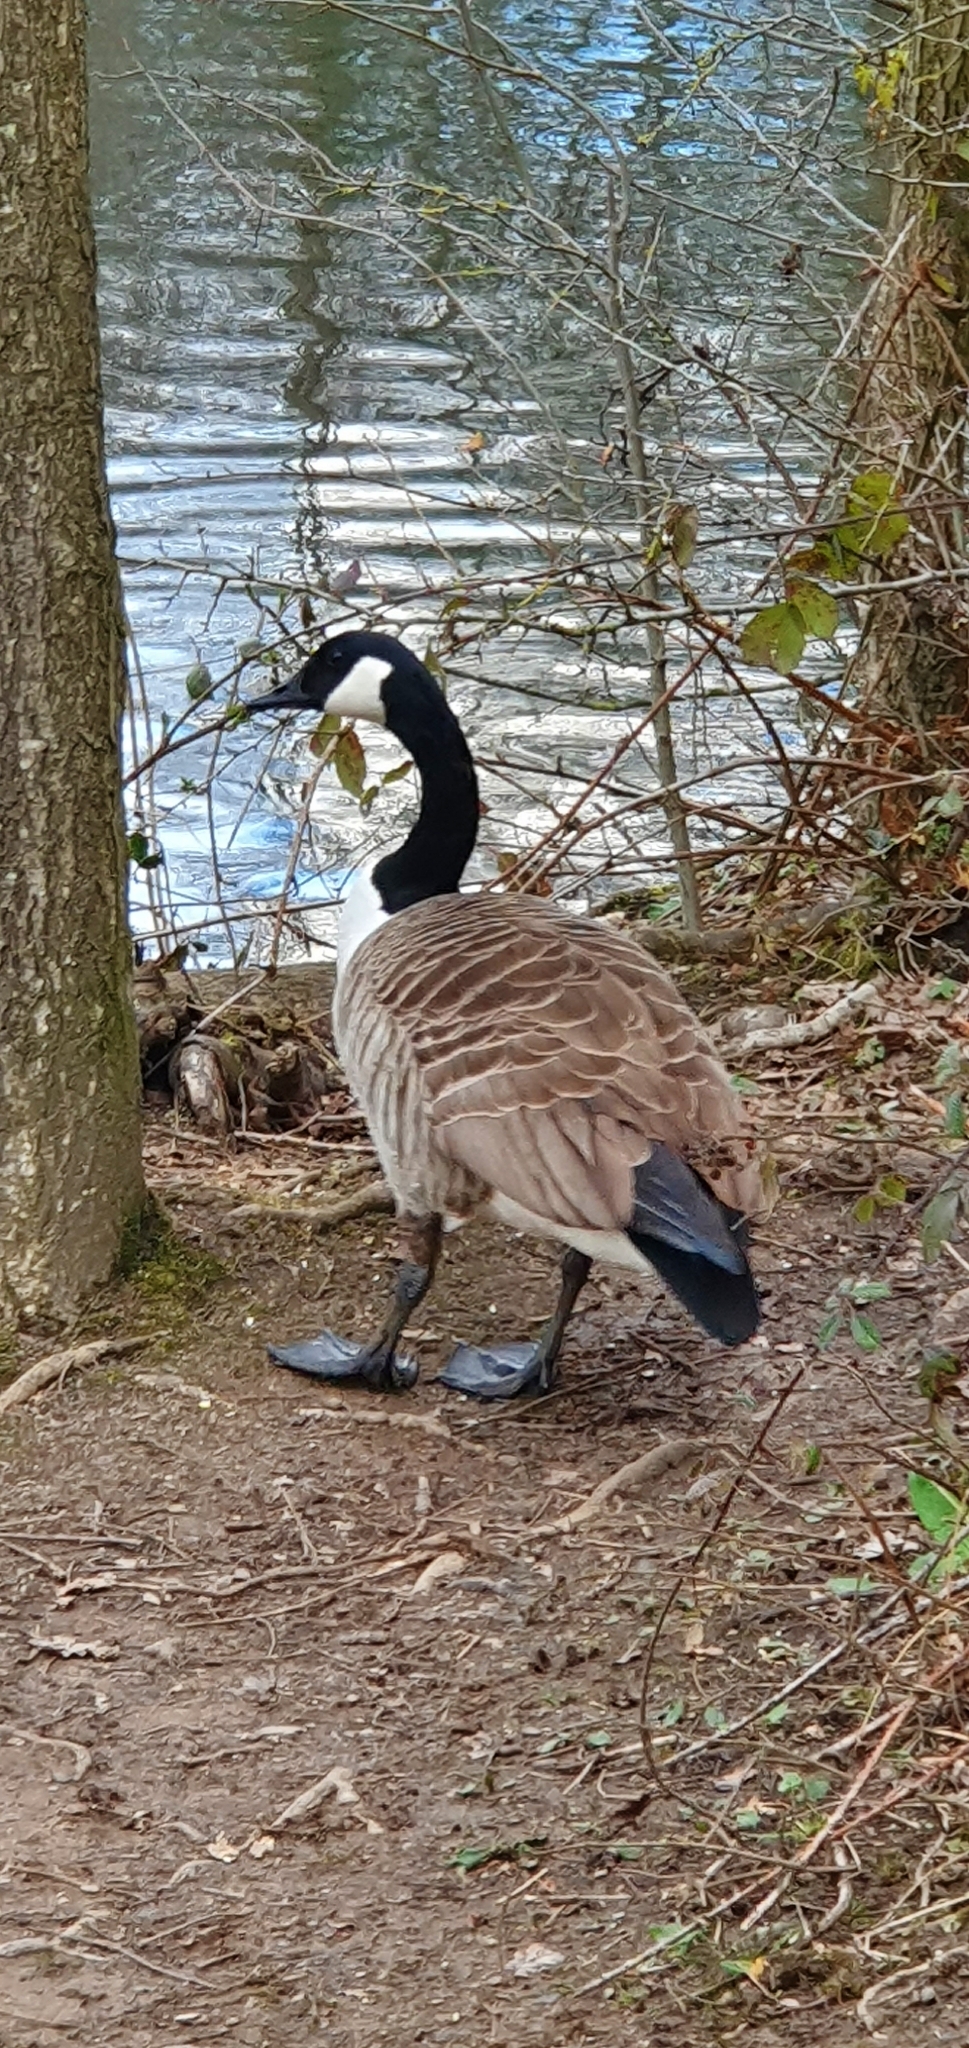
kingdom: Animalia
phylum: Chordata
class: Aves
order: Anseriformes
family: Anatidae
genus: Branta
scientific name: Branta canadensis
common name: Canada goose
